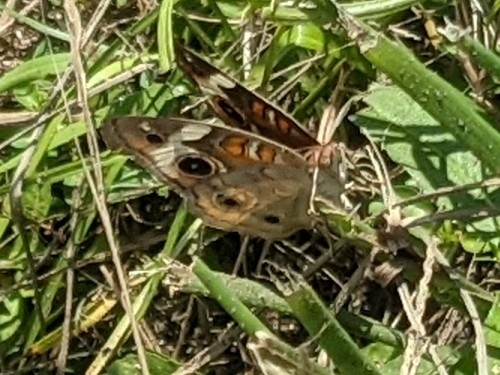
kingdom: Animalia
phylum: Arthropoda
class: Insecta
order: Lepidoptera
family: Nymphalidae
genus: Junonia
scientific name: Junonia coenia
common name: Common buckeye
